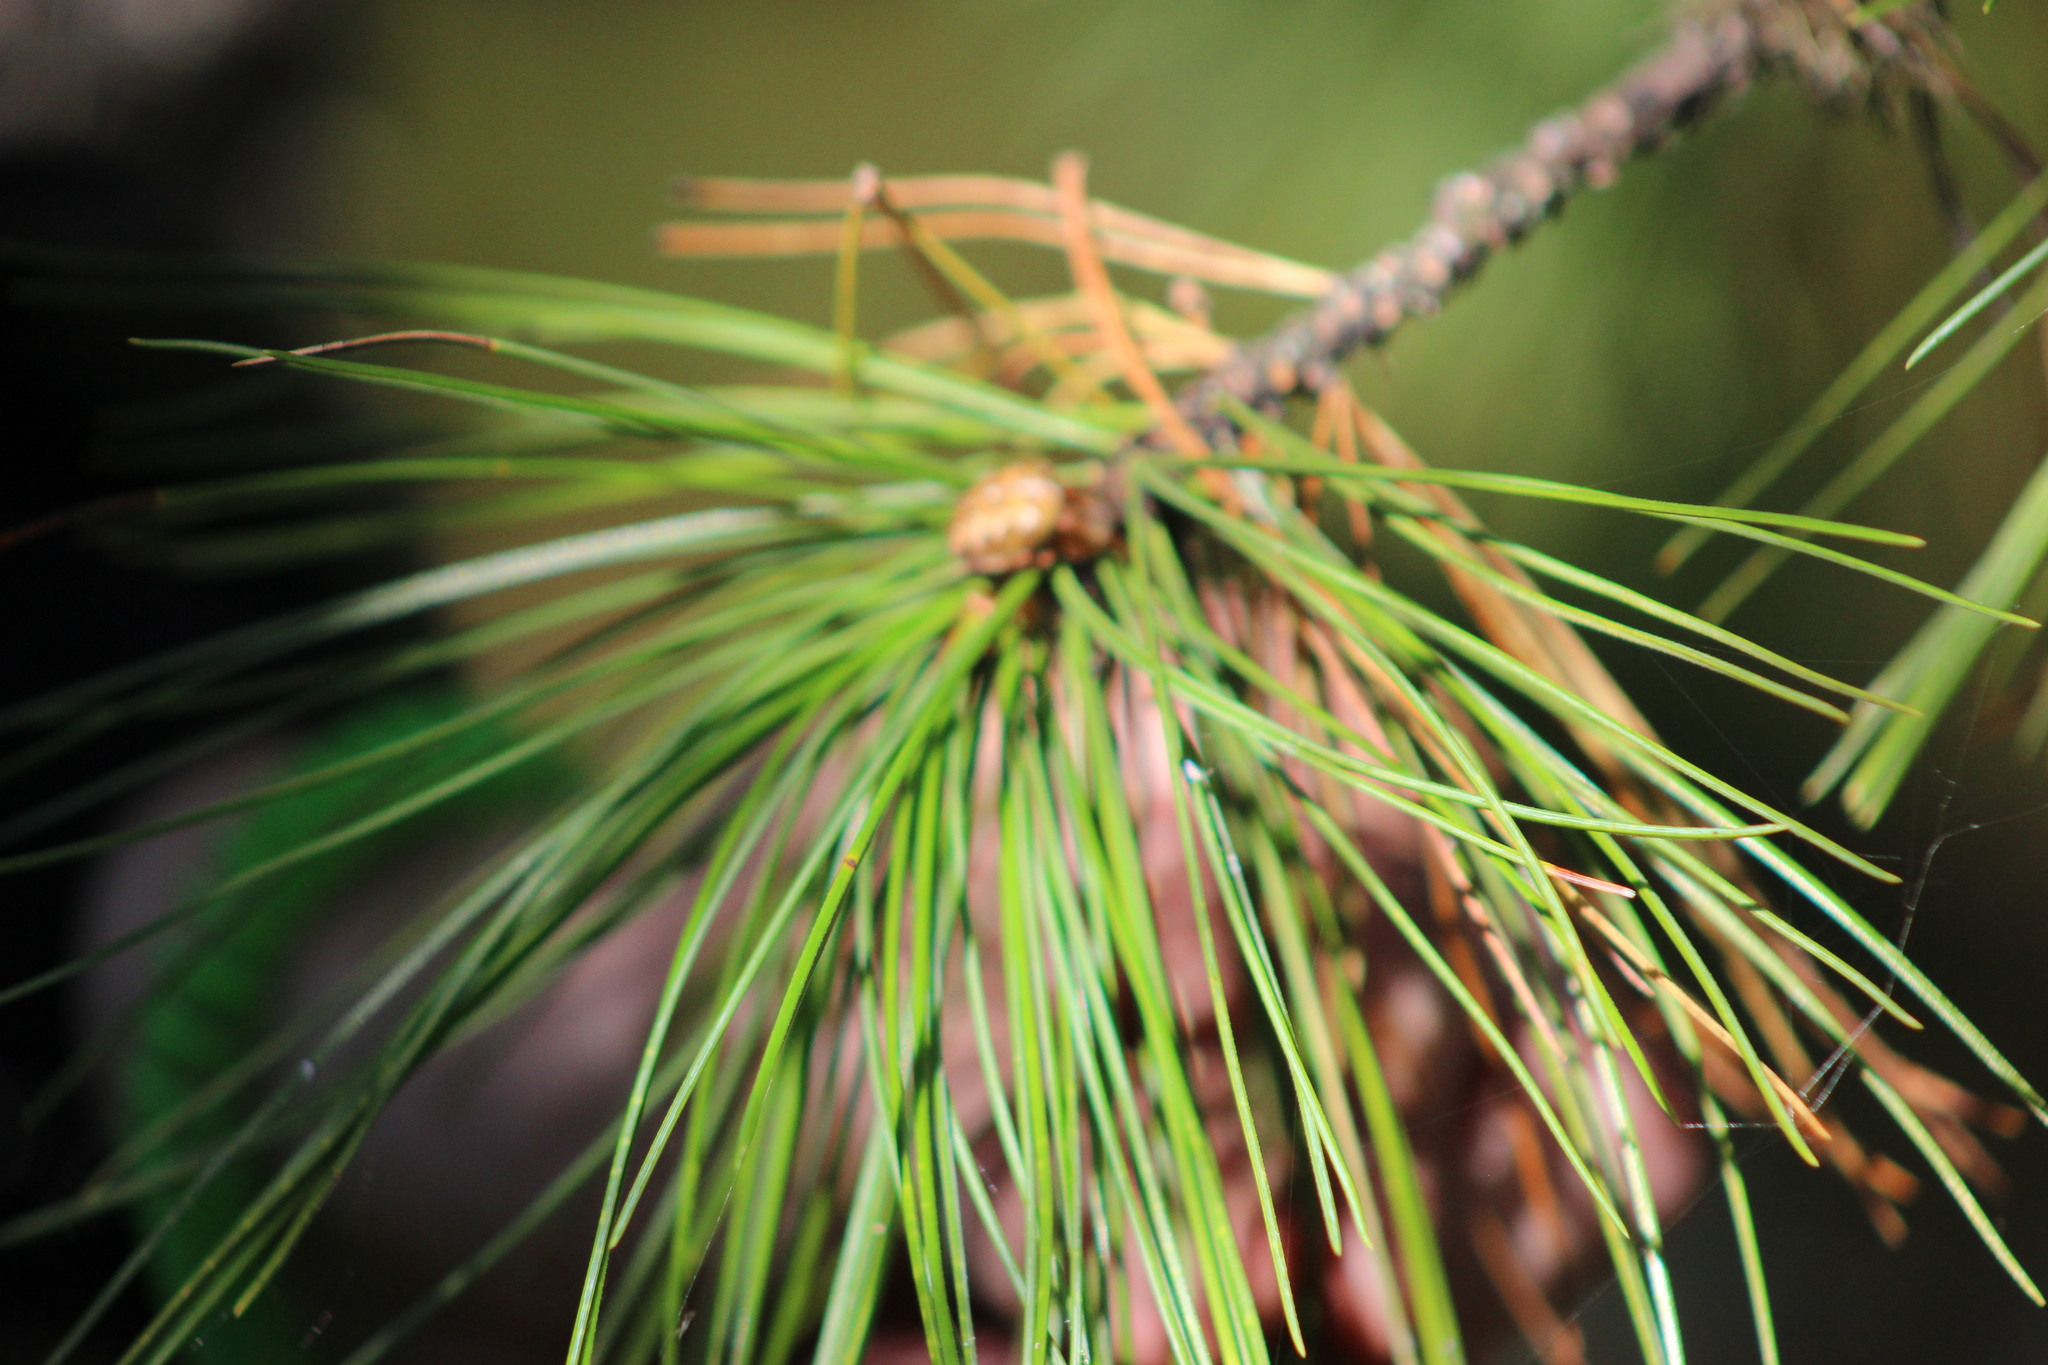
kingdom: Animalia
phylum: Arthropoda
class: Arachnida
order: Araneae
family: Araneidae
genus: Araneus
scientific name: Araneus diadematus
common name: Cross orbweaver
